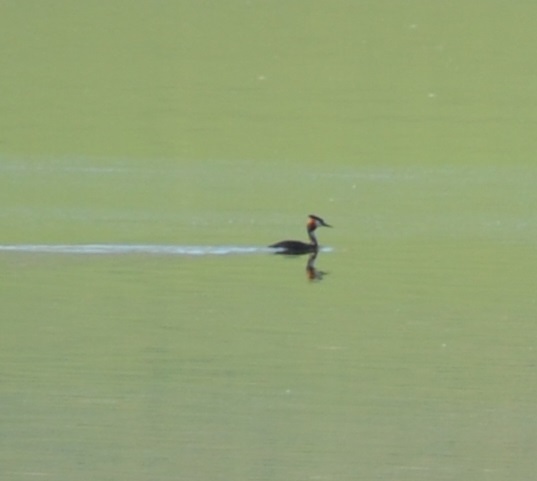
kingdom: Animalia
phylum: Chordata
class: Aves
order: Podicipediformes
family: Podicipedidae
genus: Podiceps
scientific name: Podiceps cristatus
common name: Great crested grebe
